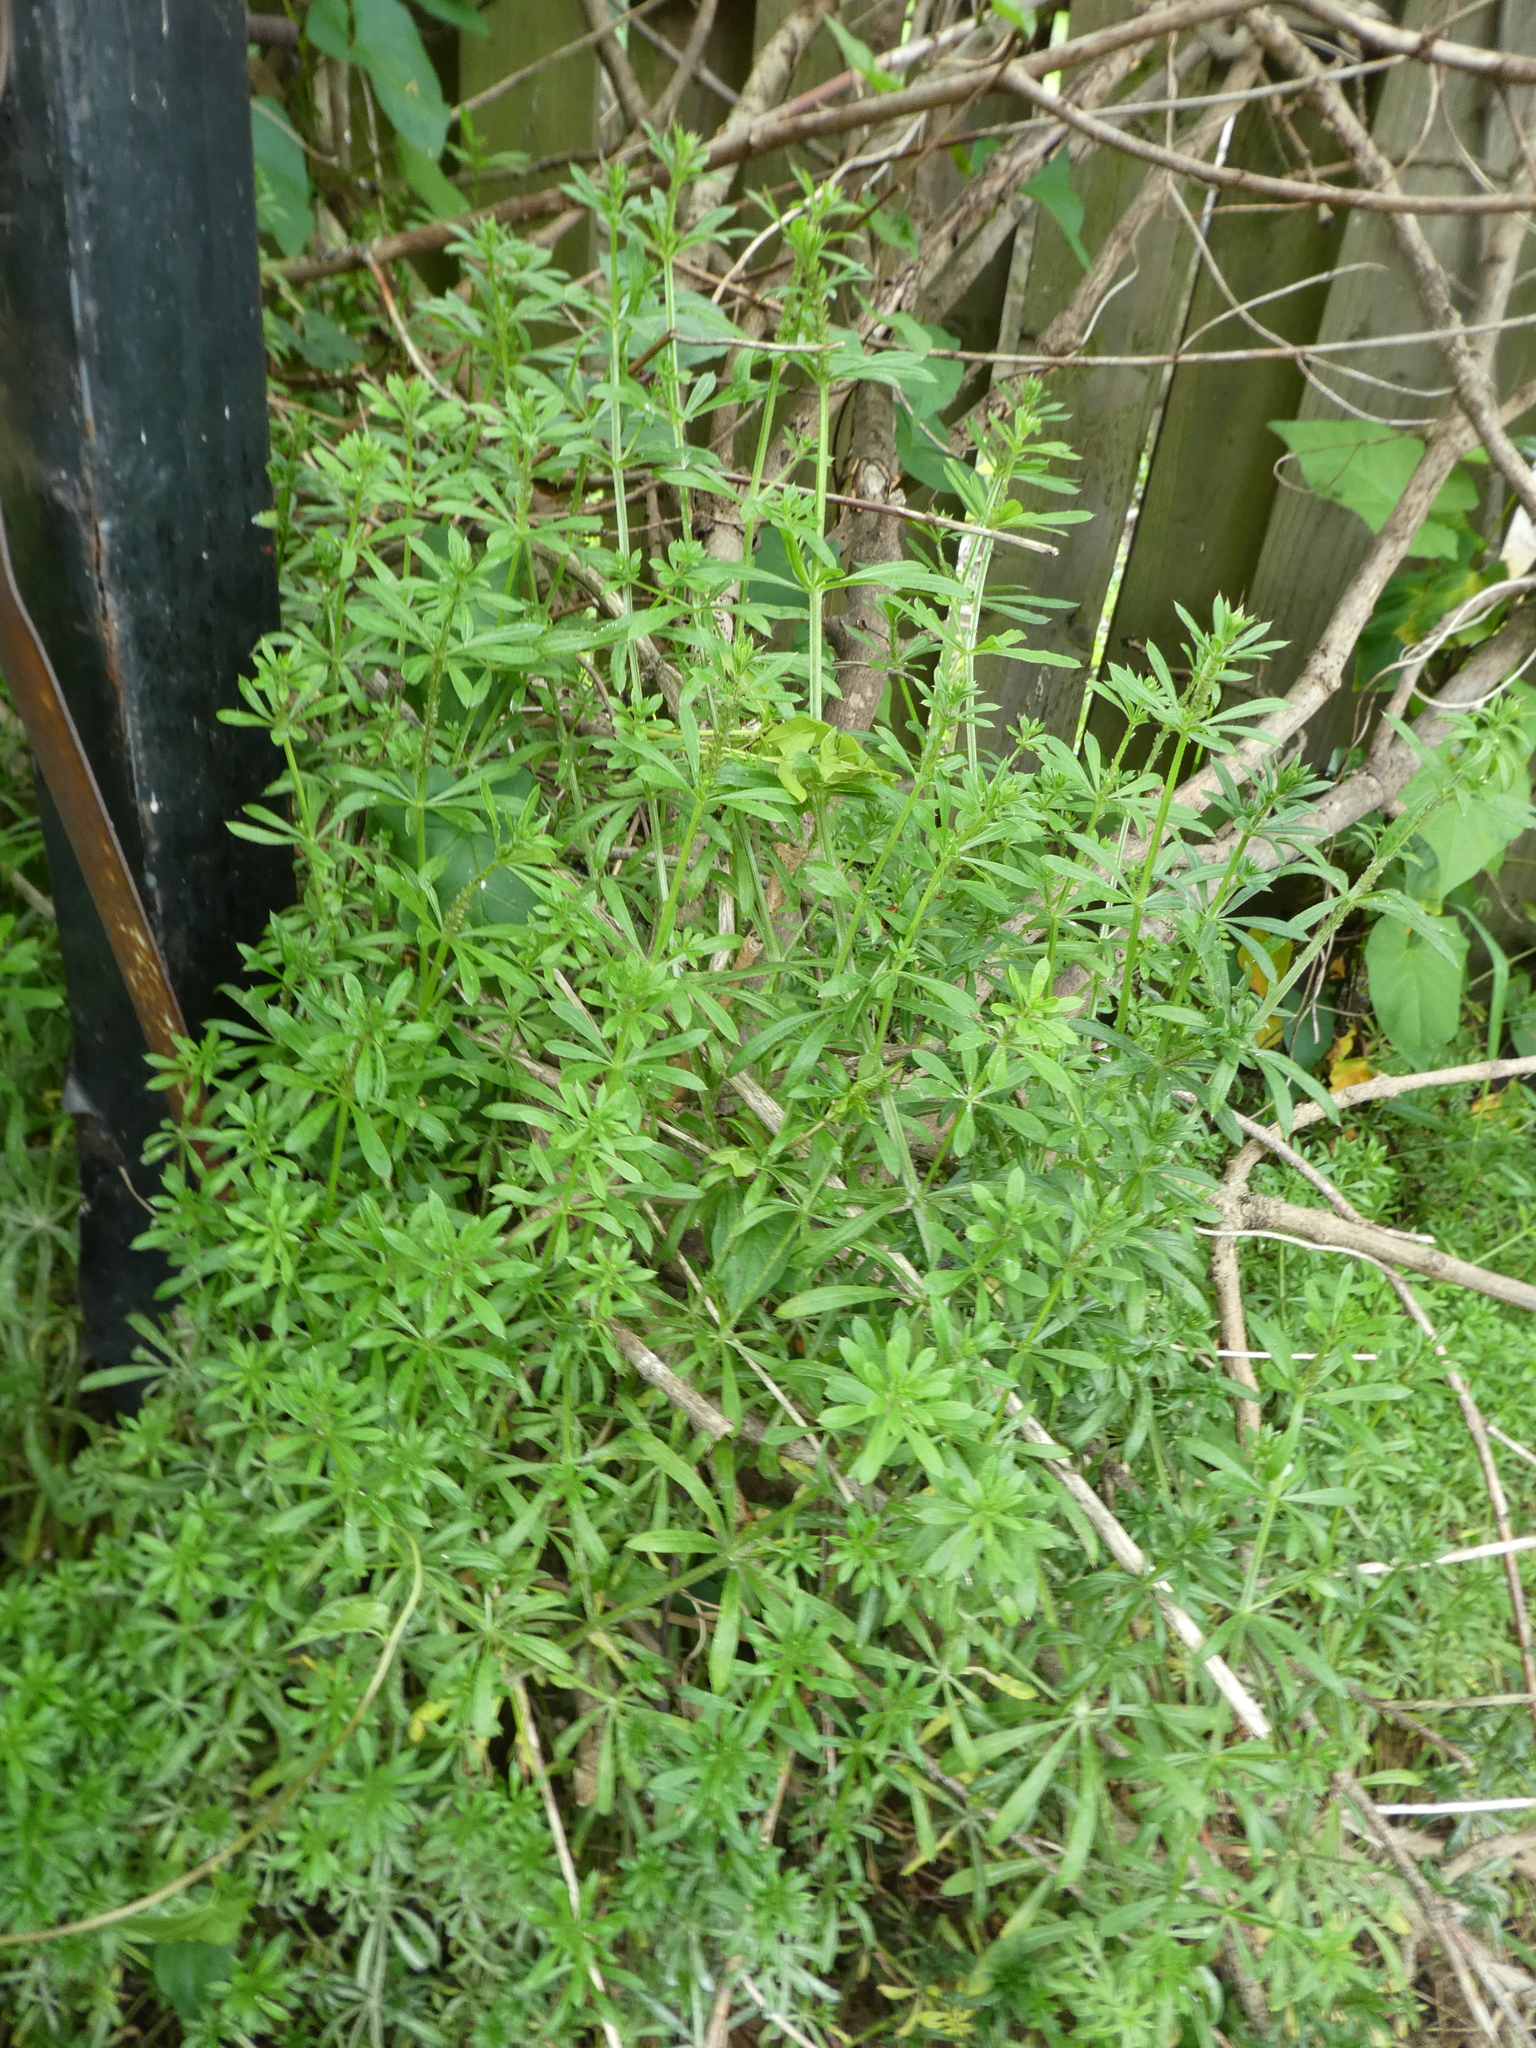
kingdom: Plantae
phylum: Tracheophyta
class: Magnoliopsida
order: Gentianales
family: Rubiaceae
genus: Galium
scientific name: Galium aparine
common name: Cleavers
